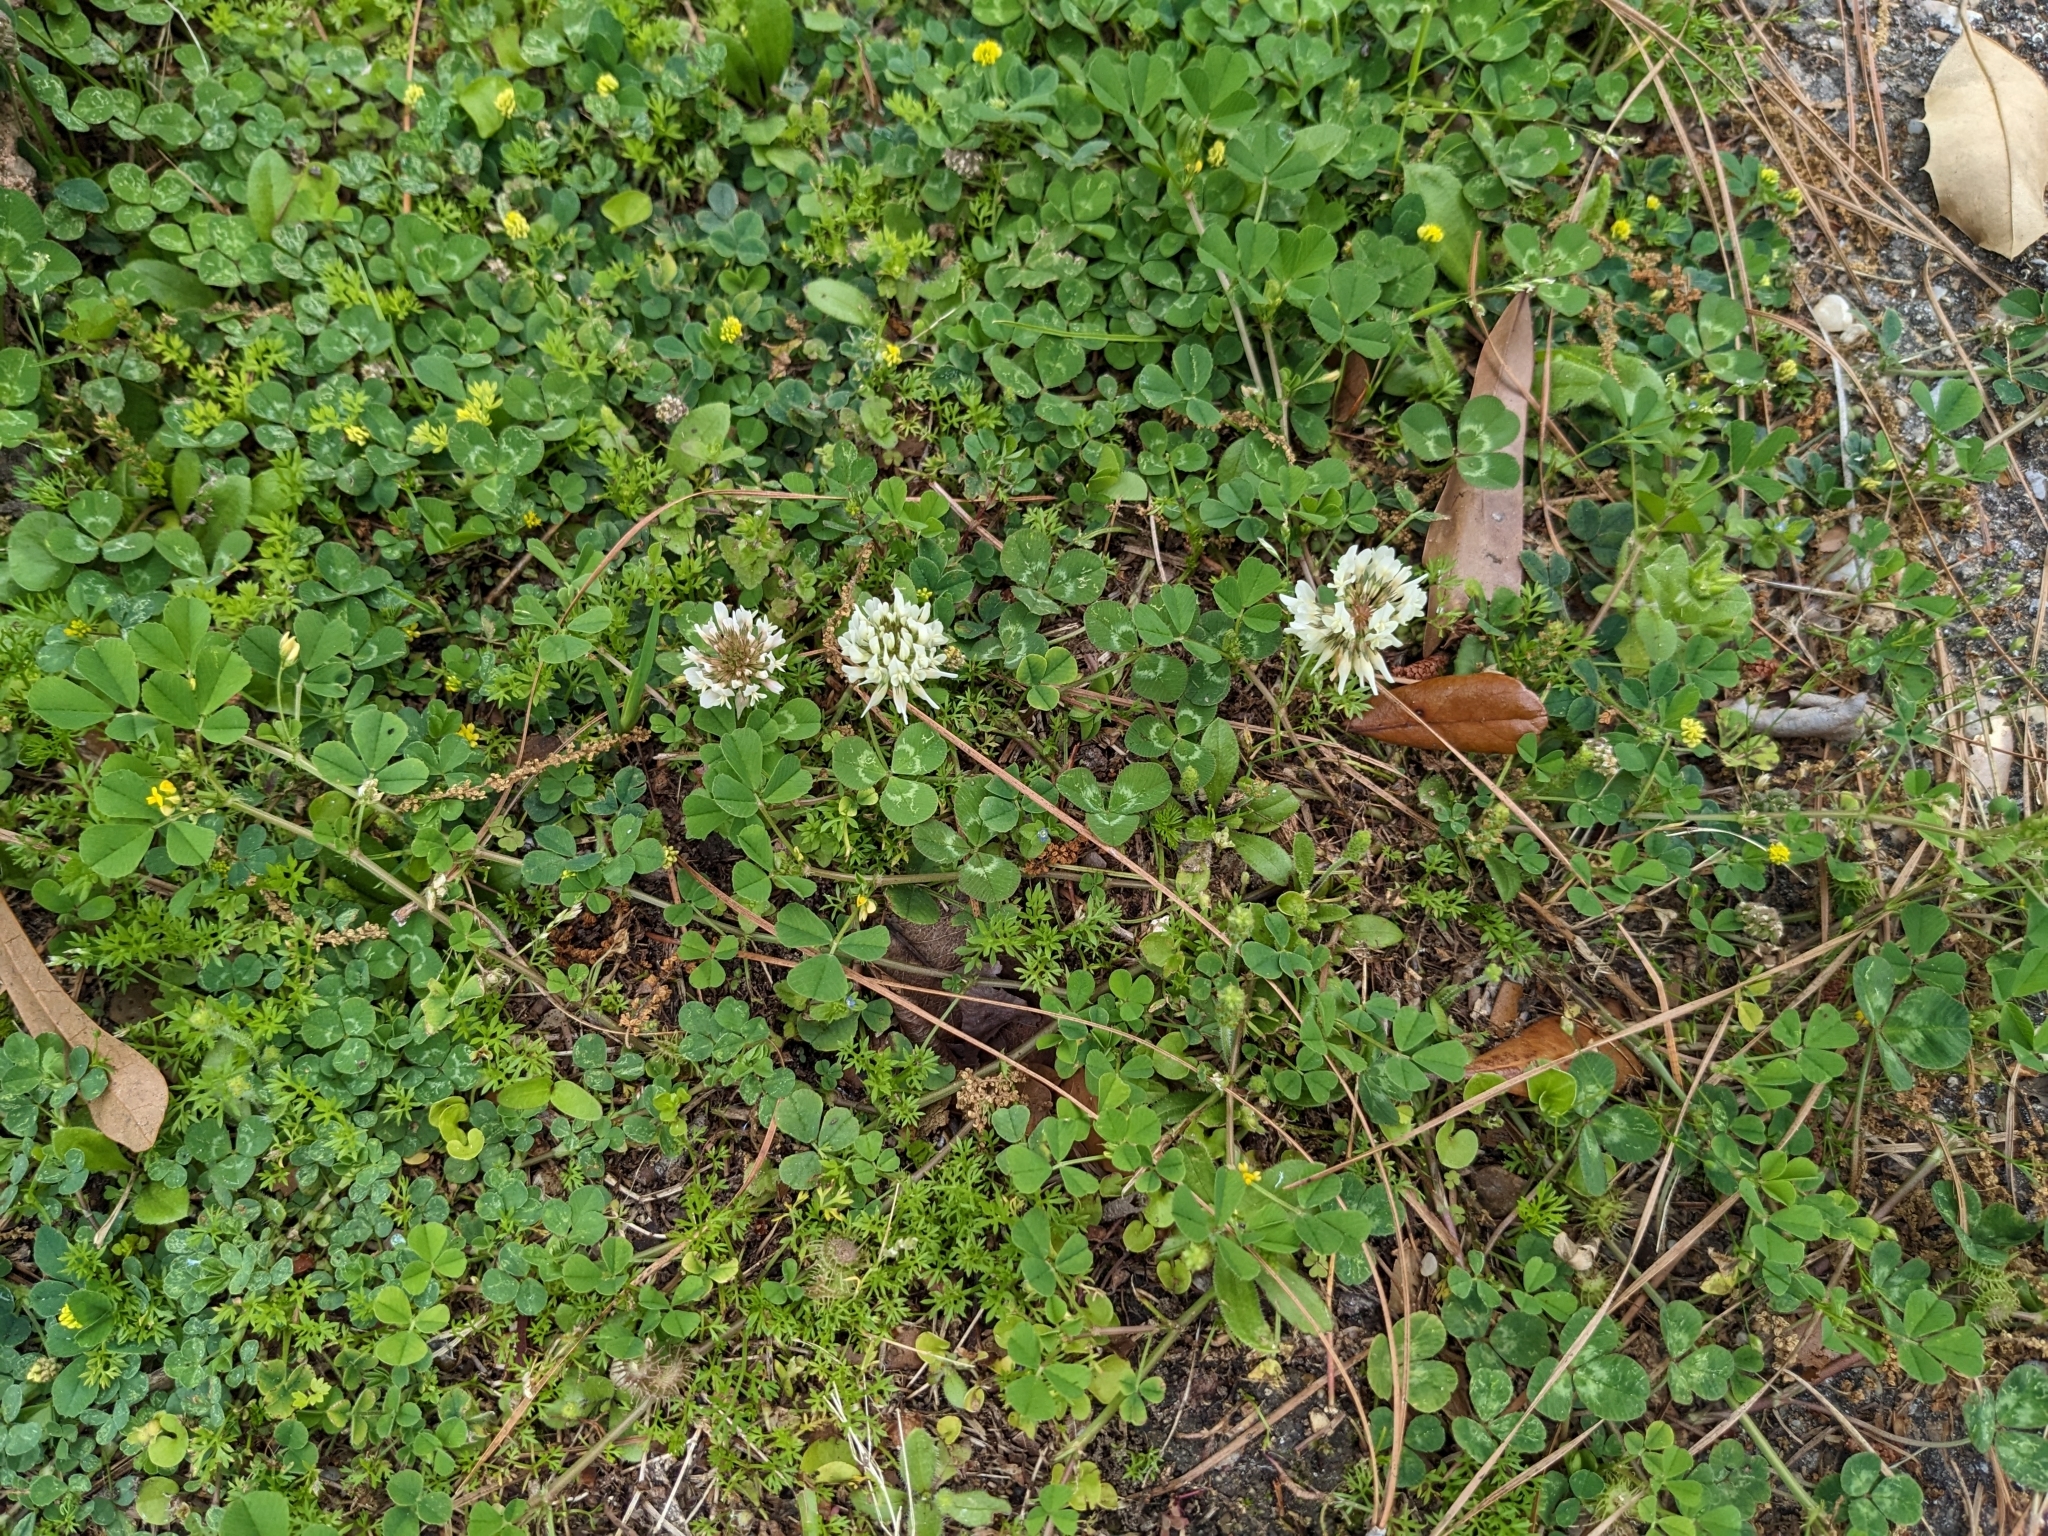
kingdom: Plantae
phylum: Tracheophyta
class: Magnoliopsida
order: Fabales
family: Fabaceae
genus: Trifolium
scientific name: Trifolium repens
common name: White clover
